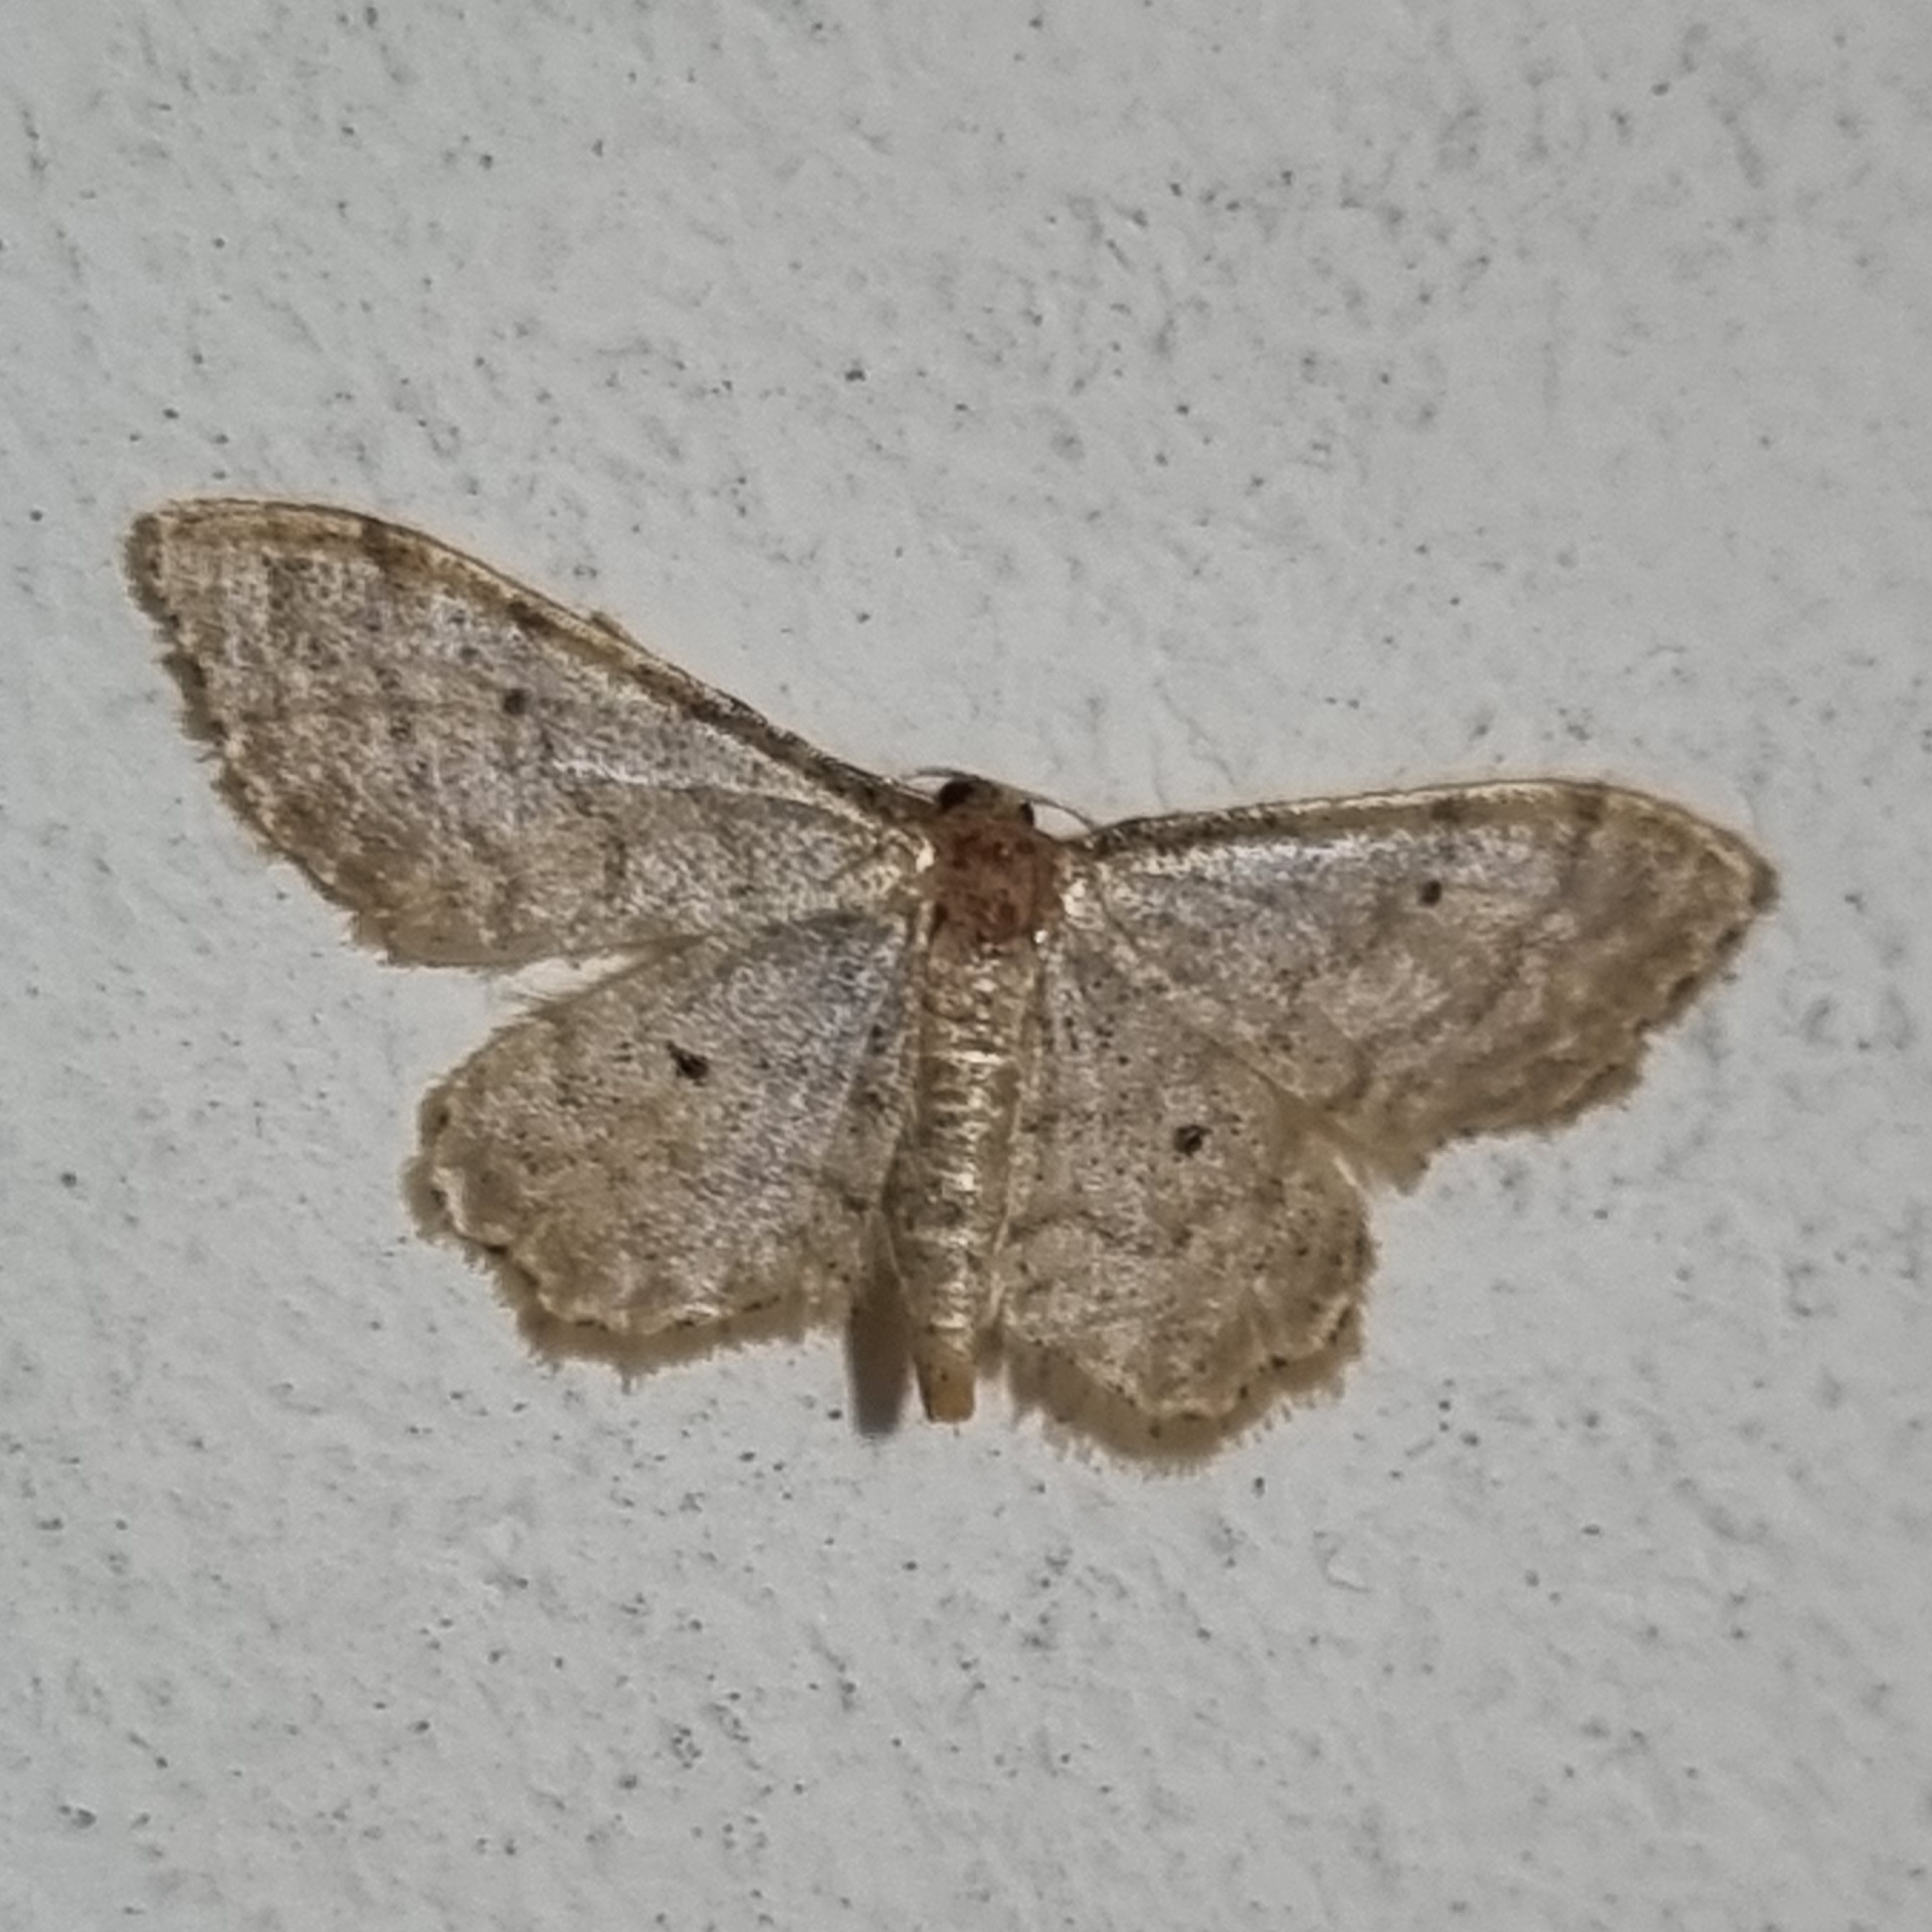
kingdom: Animalia
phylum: Arthropoda
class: Insecta
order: Lepidoptera
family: Geometridae
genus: Idaea
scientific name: Idaea fuscovenosa
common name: Dwarf cream wave
